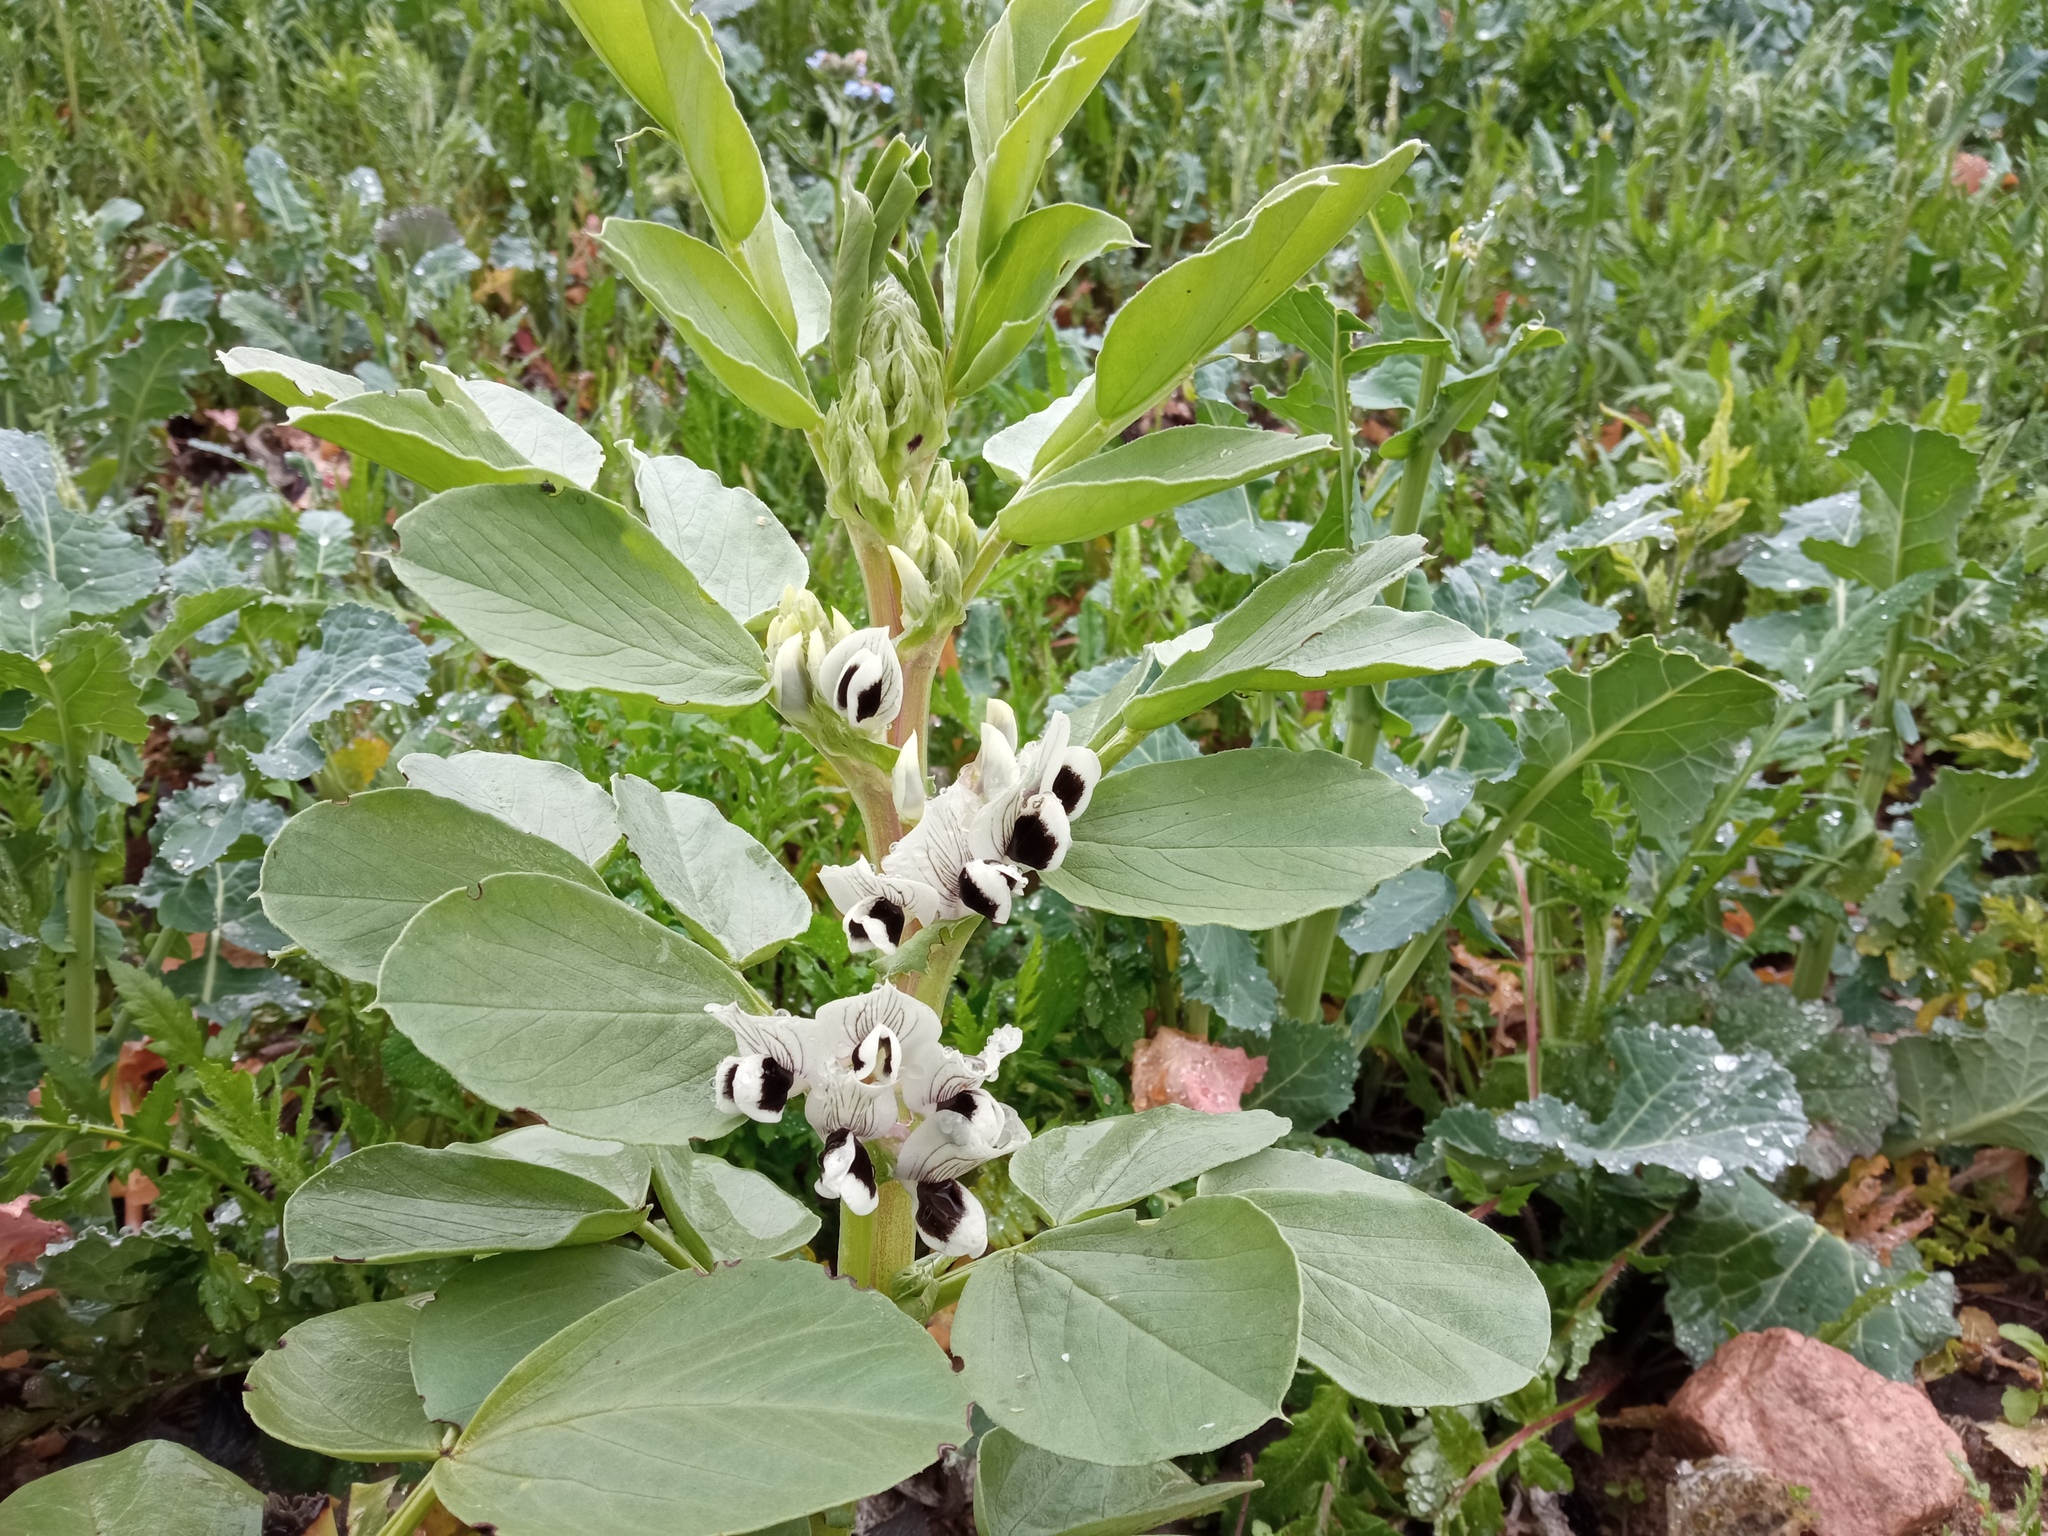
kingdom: Plantae
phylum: Tracheophyta
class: Magnoliopsida
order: Fabales
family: Fabaceae
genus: Vicia
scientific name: Vicia faba
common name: Broad bean
